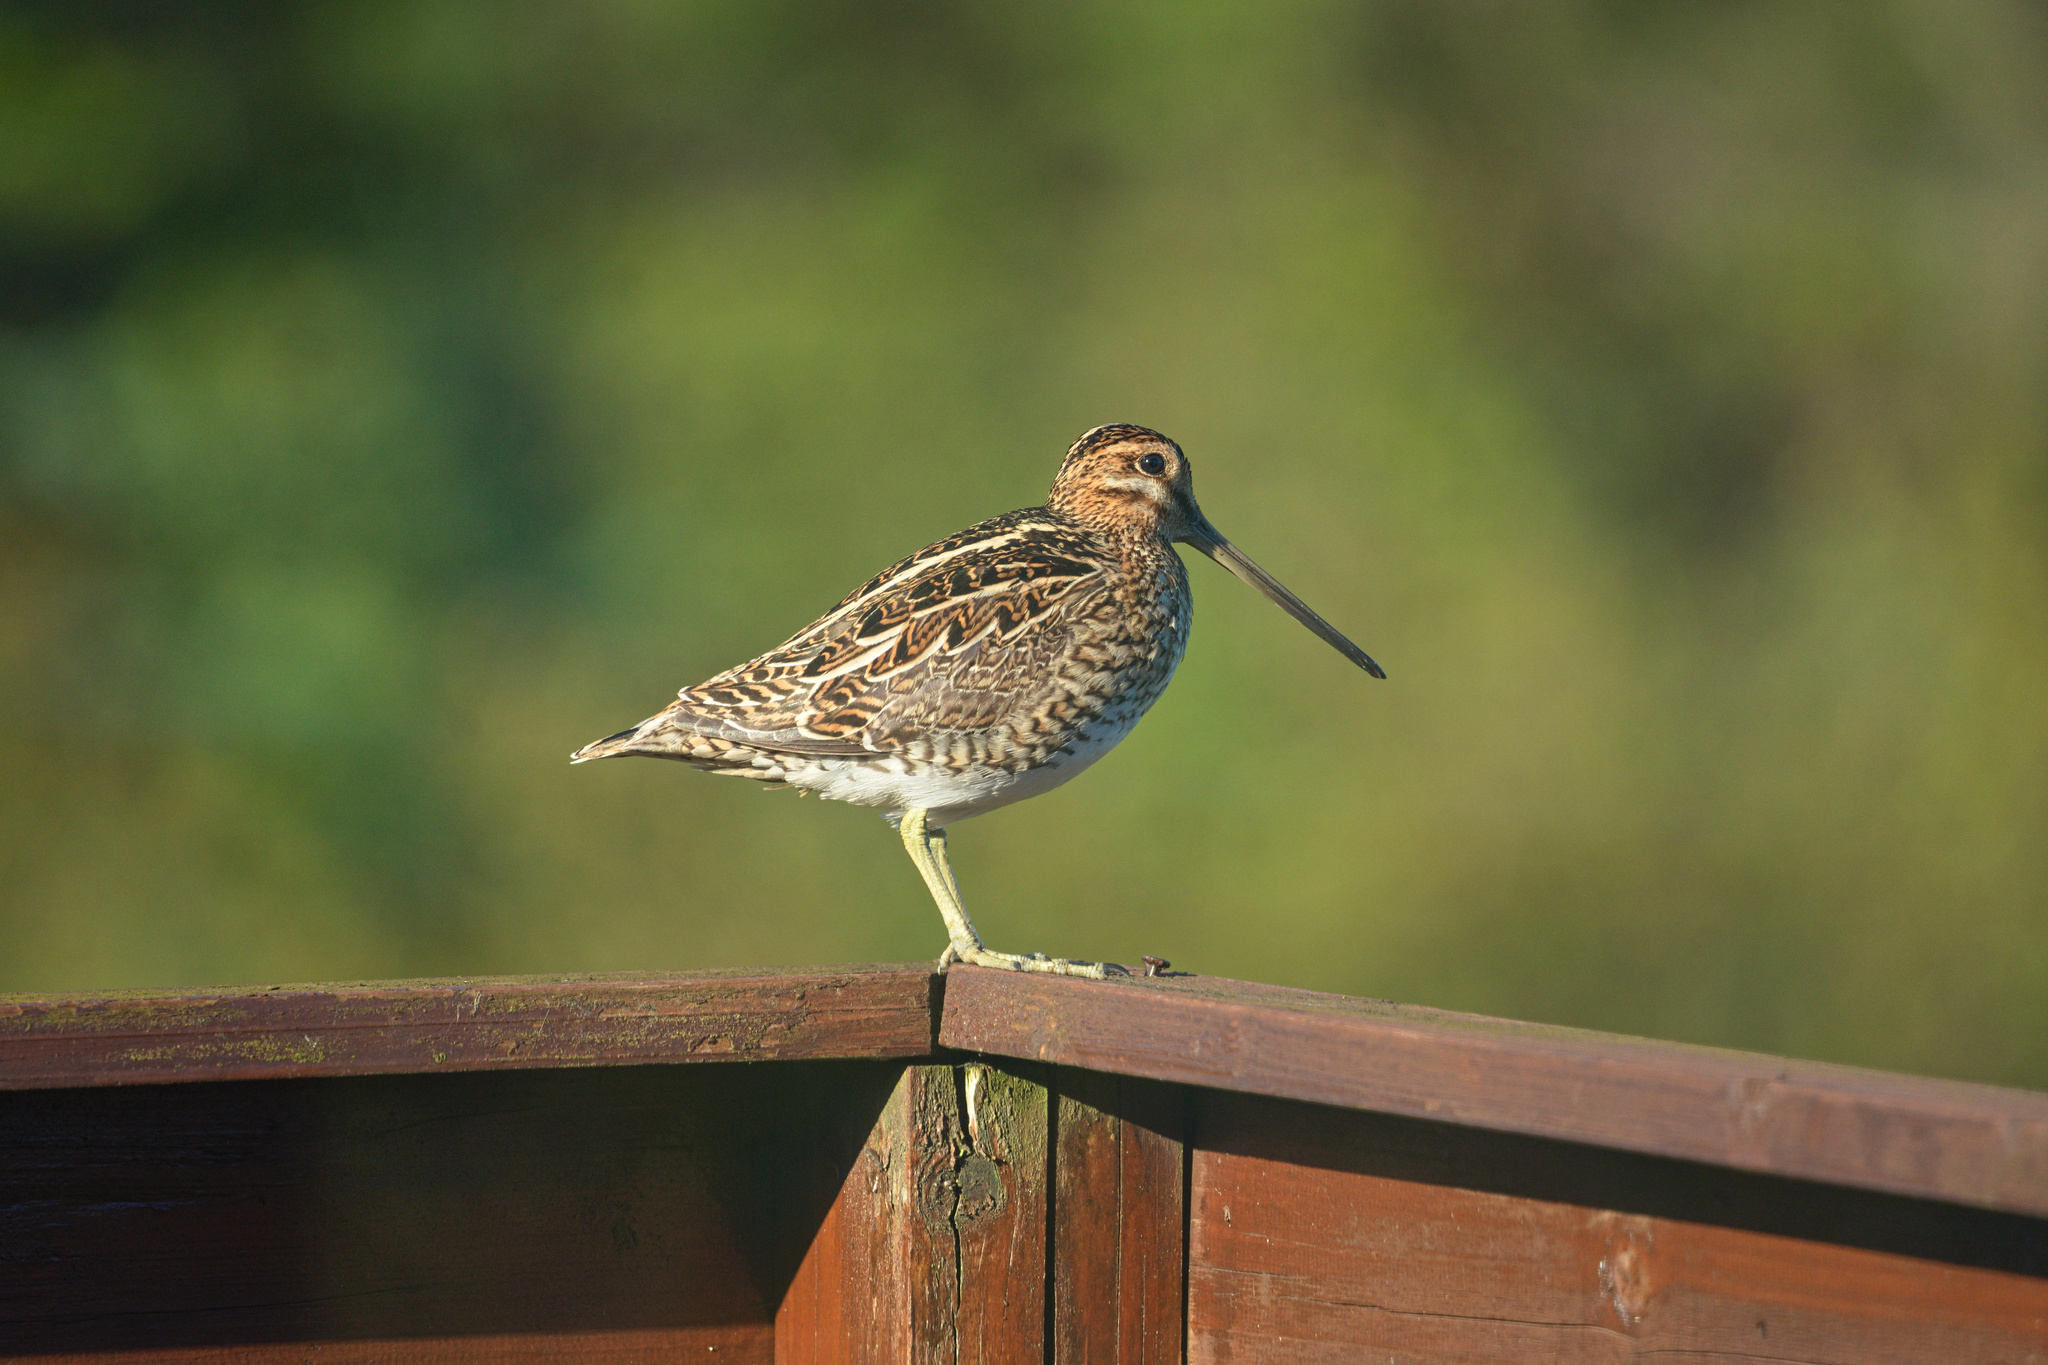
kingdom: Animalia
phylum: Chordata
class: Aves
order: Charadriiformes
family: Scolopacidae
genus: Gallinago
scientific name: Gallinago gallinago
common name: Common snipe
